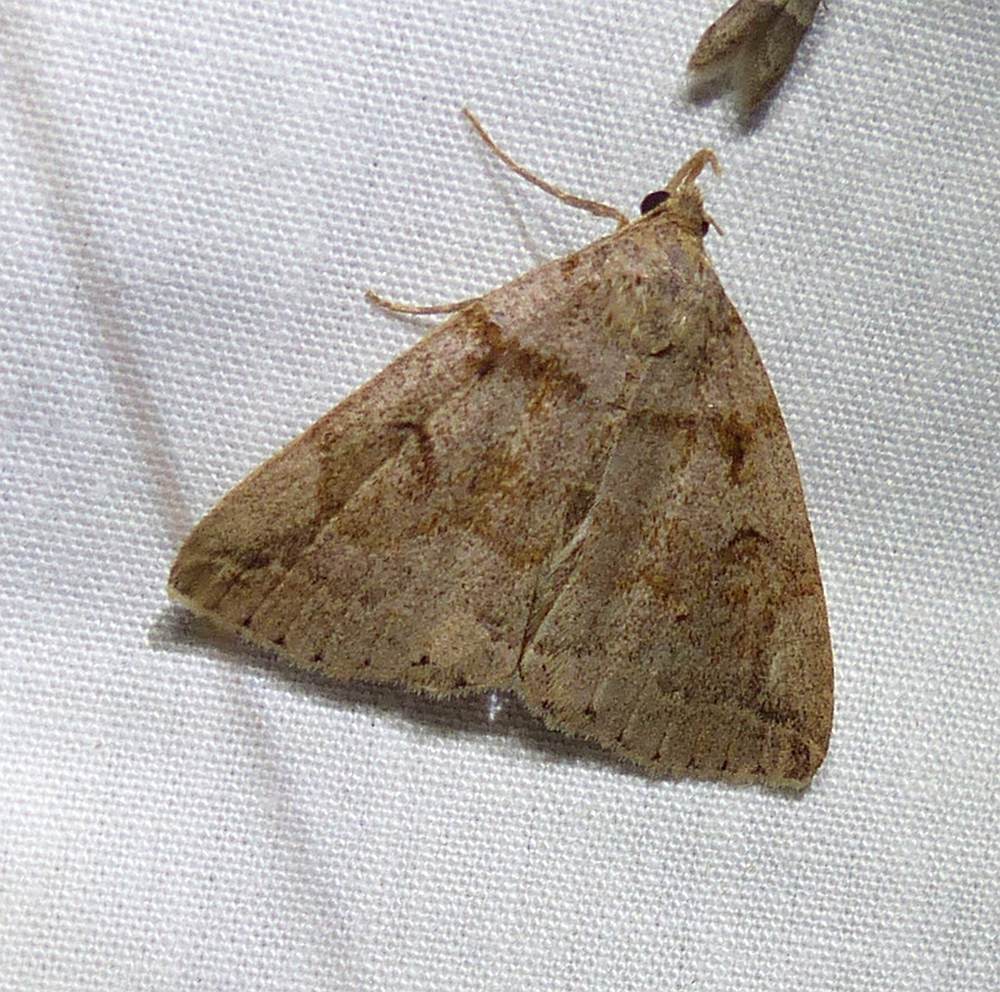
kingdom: Animalia
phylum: Arthropoda
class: Insecta
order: Lepidoptera
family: Erebidae
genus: Zanclognatha
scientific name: Zanclognatha laevigata
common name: Variable fan-foot
